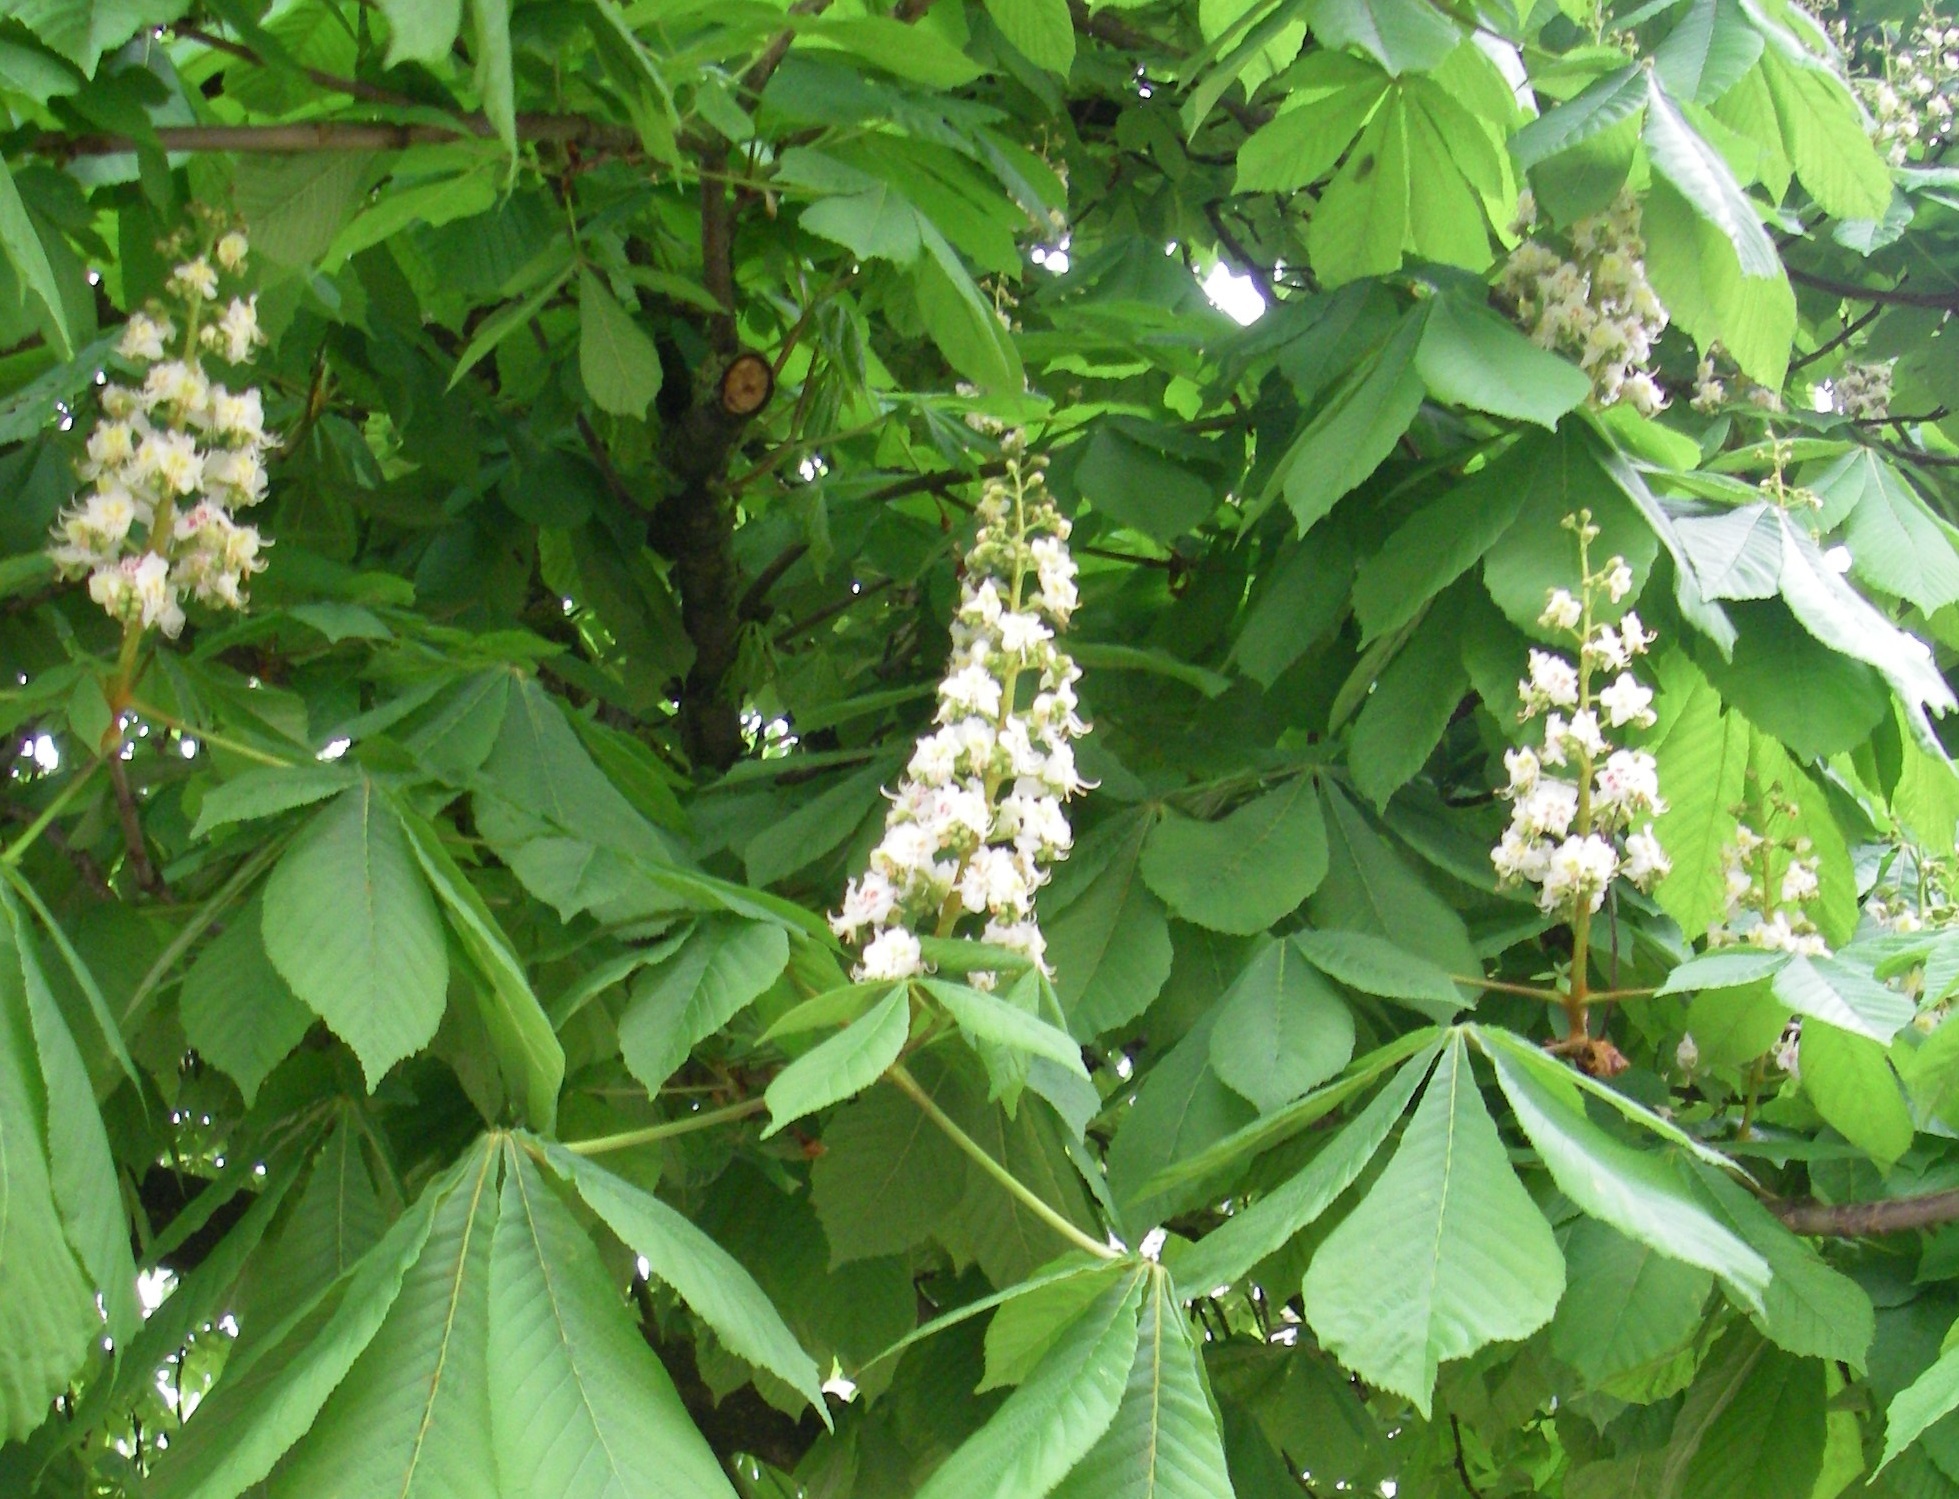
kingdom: Plantae
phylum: Tracheophyta
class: Magnoliopsida
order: Sapindales
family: Sapindaceae
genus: Aesculus
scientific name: Aesculus hippocastanum
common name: Horse-chestnut
